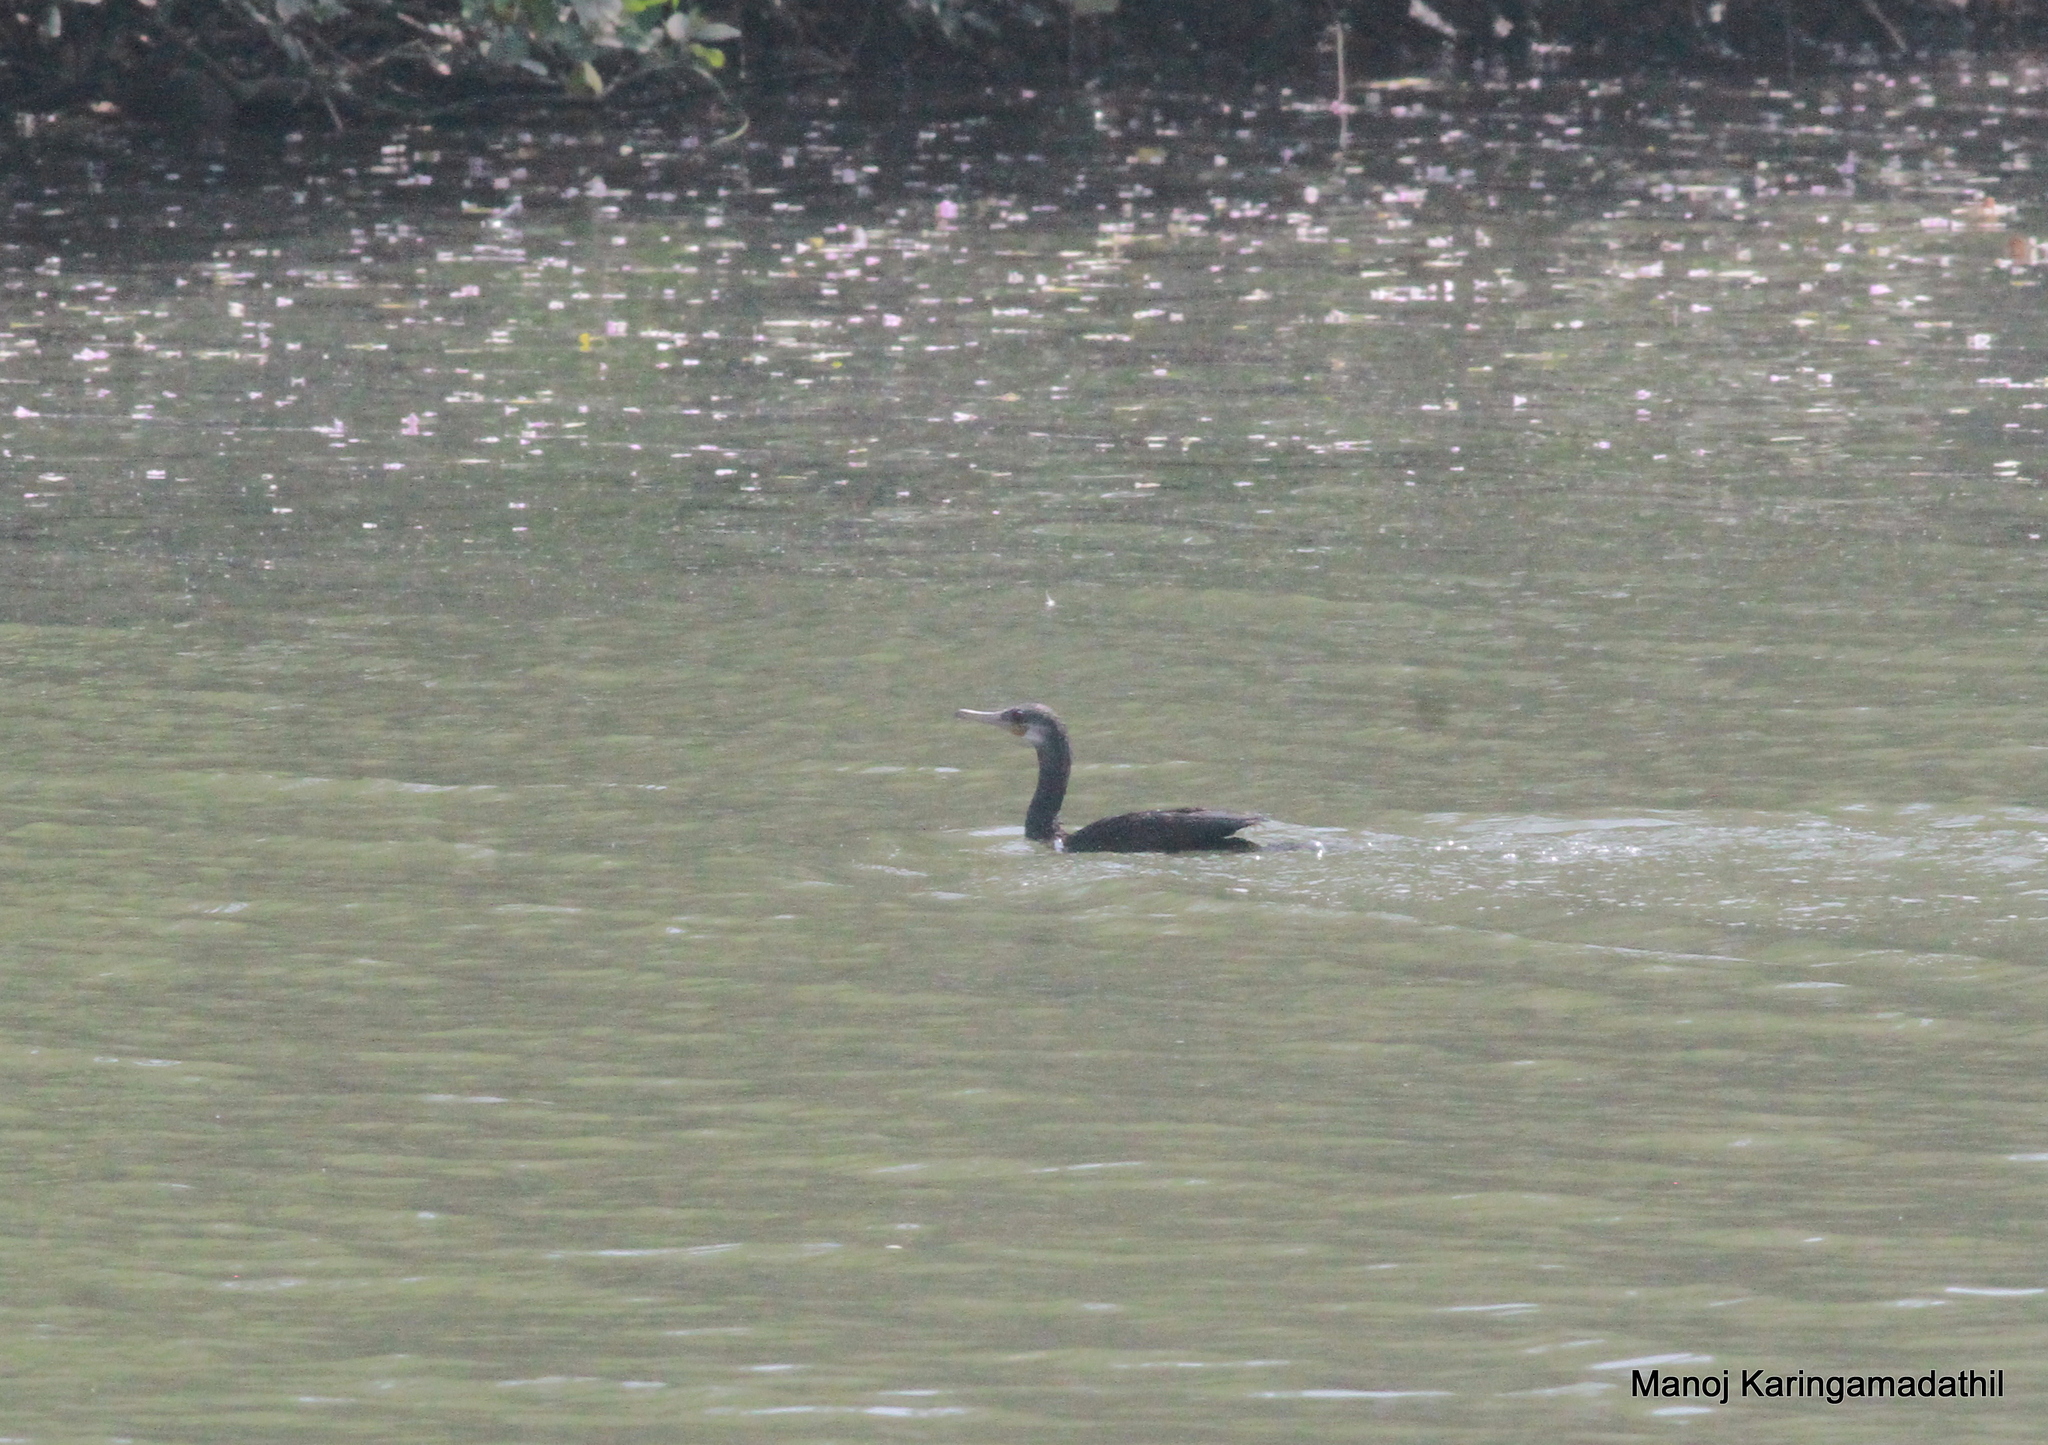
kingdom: Animalia
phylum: Chordata
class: Aves
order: Suliformes
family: Phalacrocoracidae
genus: Phalacrocorax
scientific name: Phalacrocorax fuscicollis
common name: Indian cormorant
